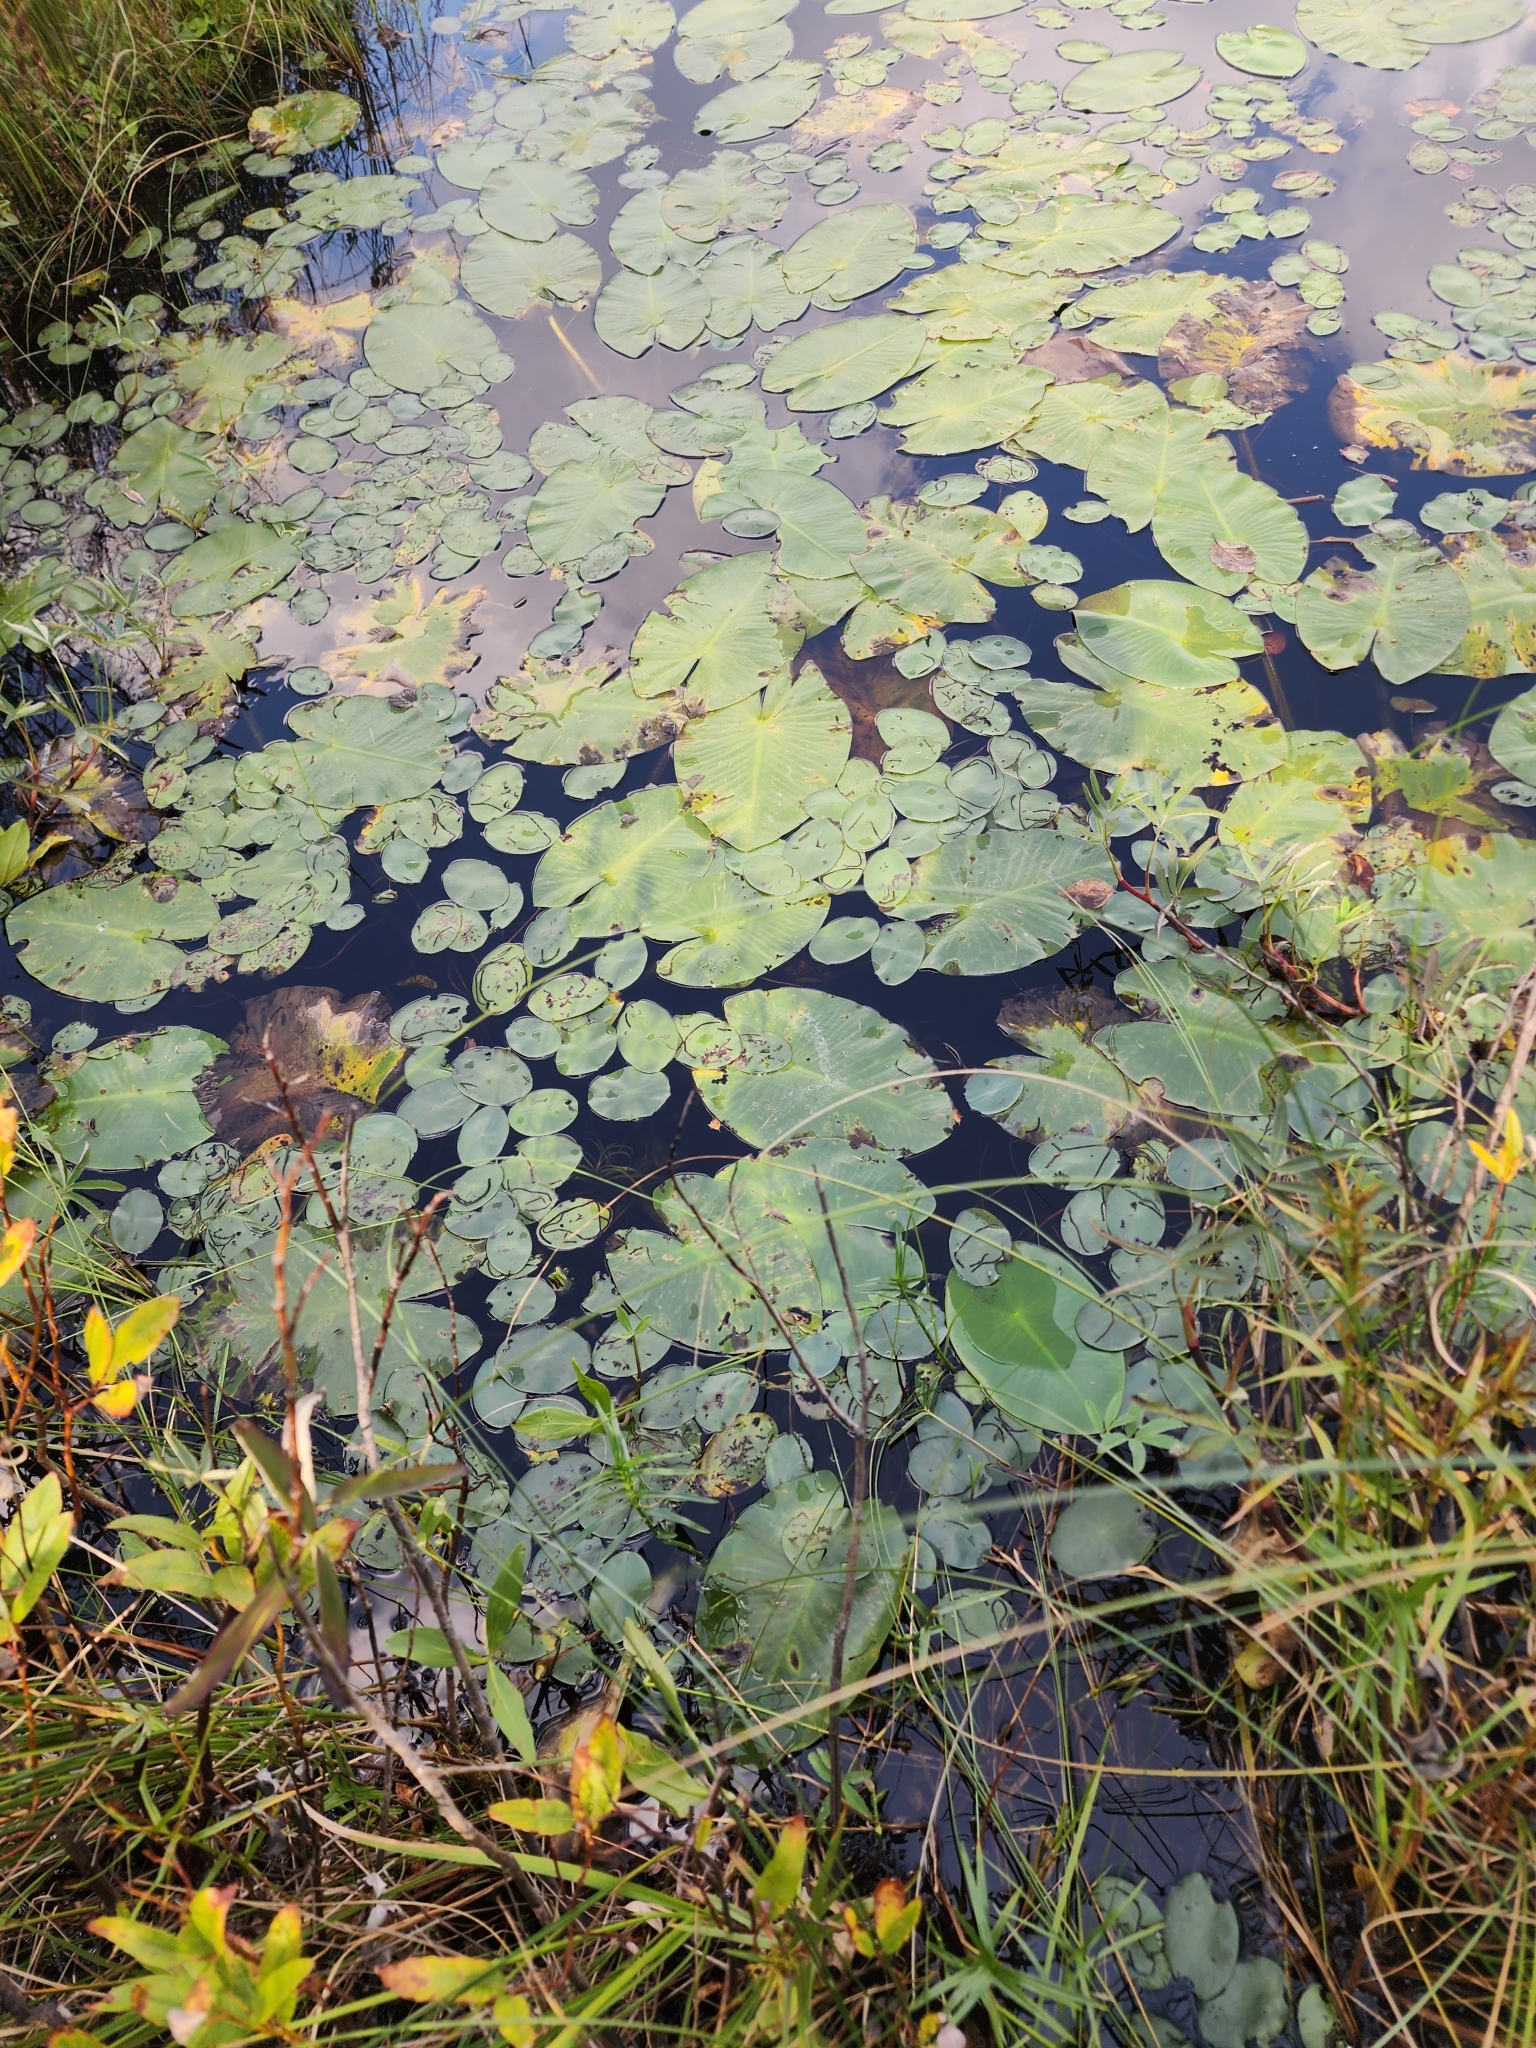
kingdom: Plantae
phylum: Tracheophyta
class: Magnoliopsida
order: Nymphaeales
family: Nymphaeaceae
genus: Nuphar
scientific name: Nuphar variegata
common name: Beaver-root
